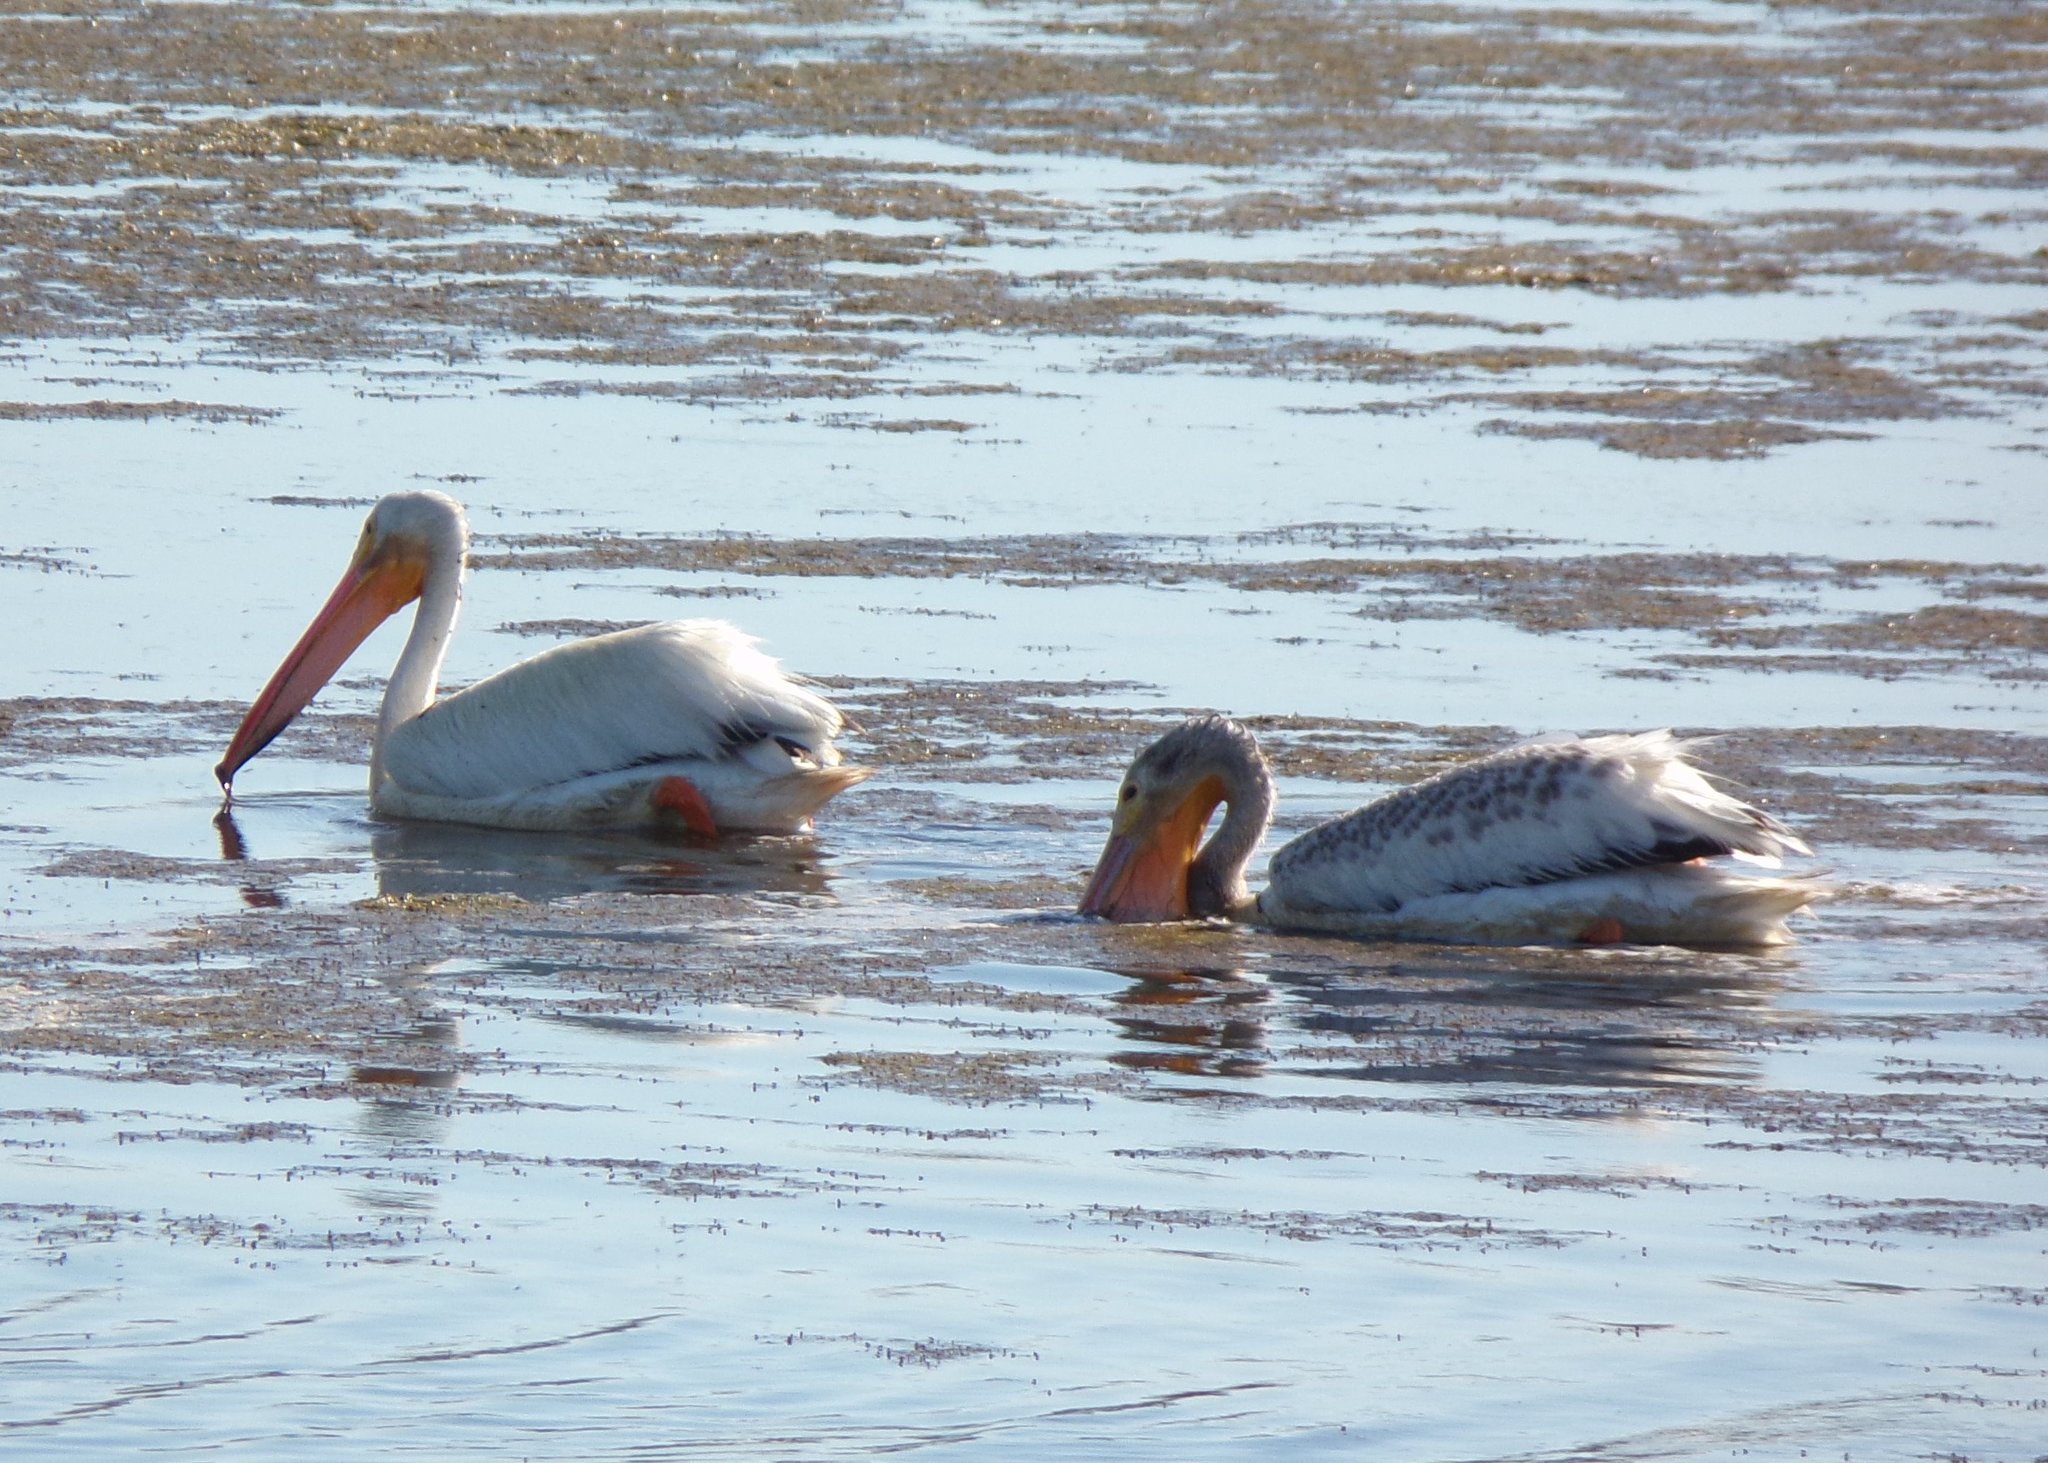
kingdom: Animalia
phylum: Chordata
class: Aves
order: Pelecaniformes
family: Pelecanidae
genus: Pelecanus
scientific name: Pelecanus erythrorhynchos
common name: American white pelican
